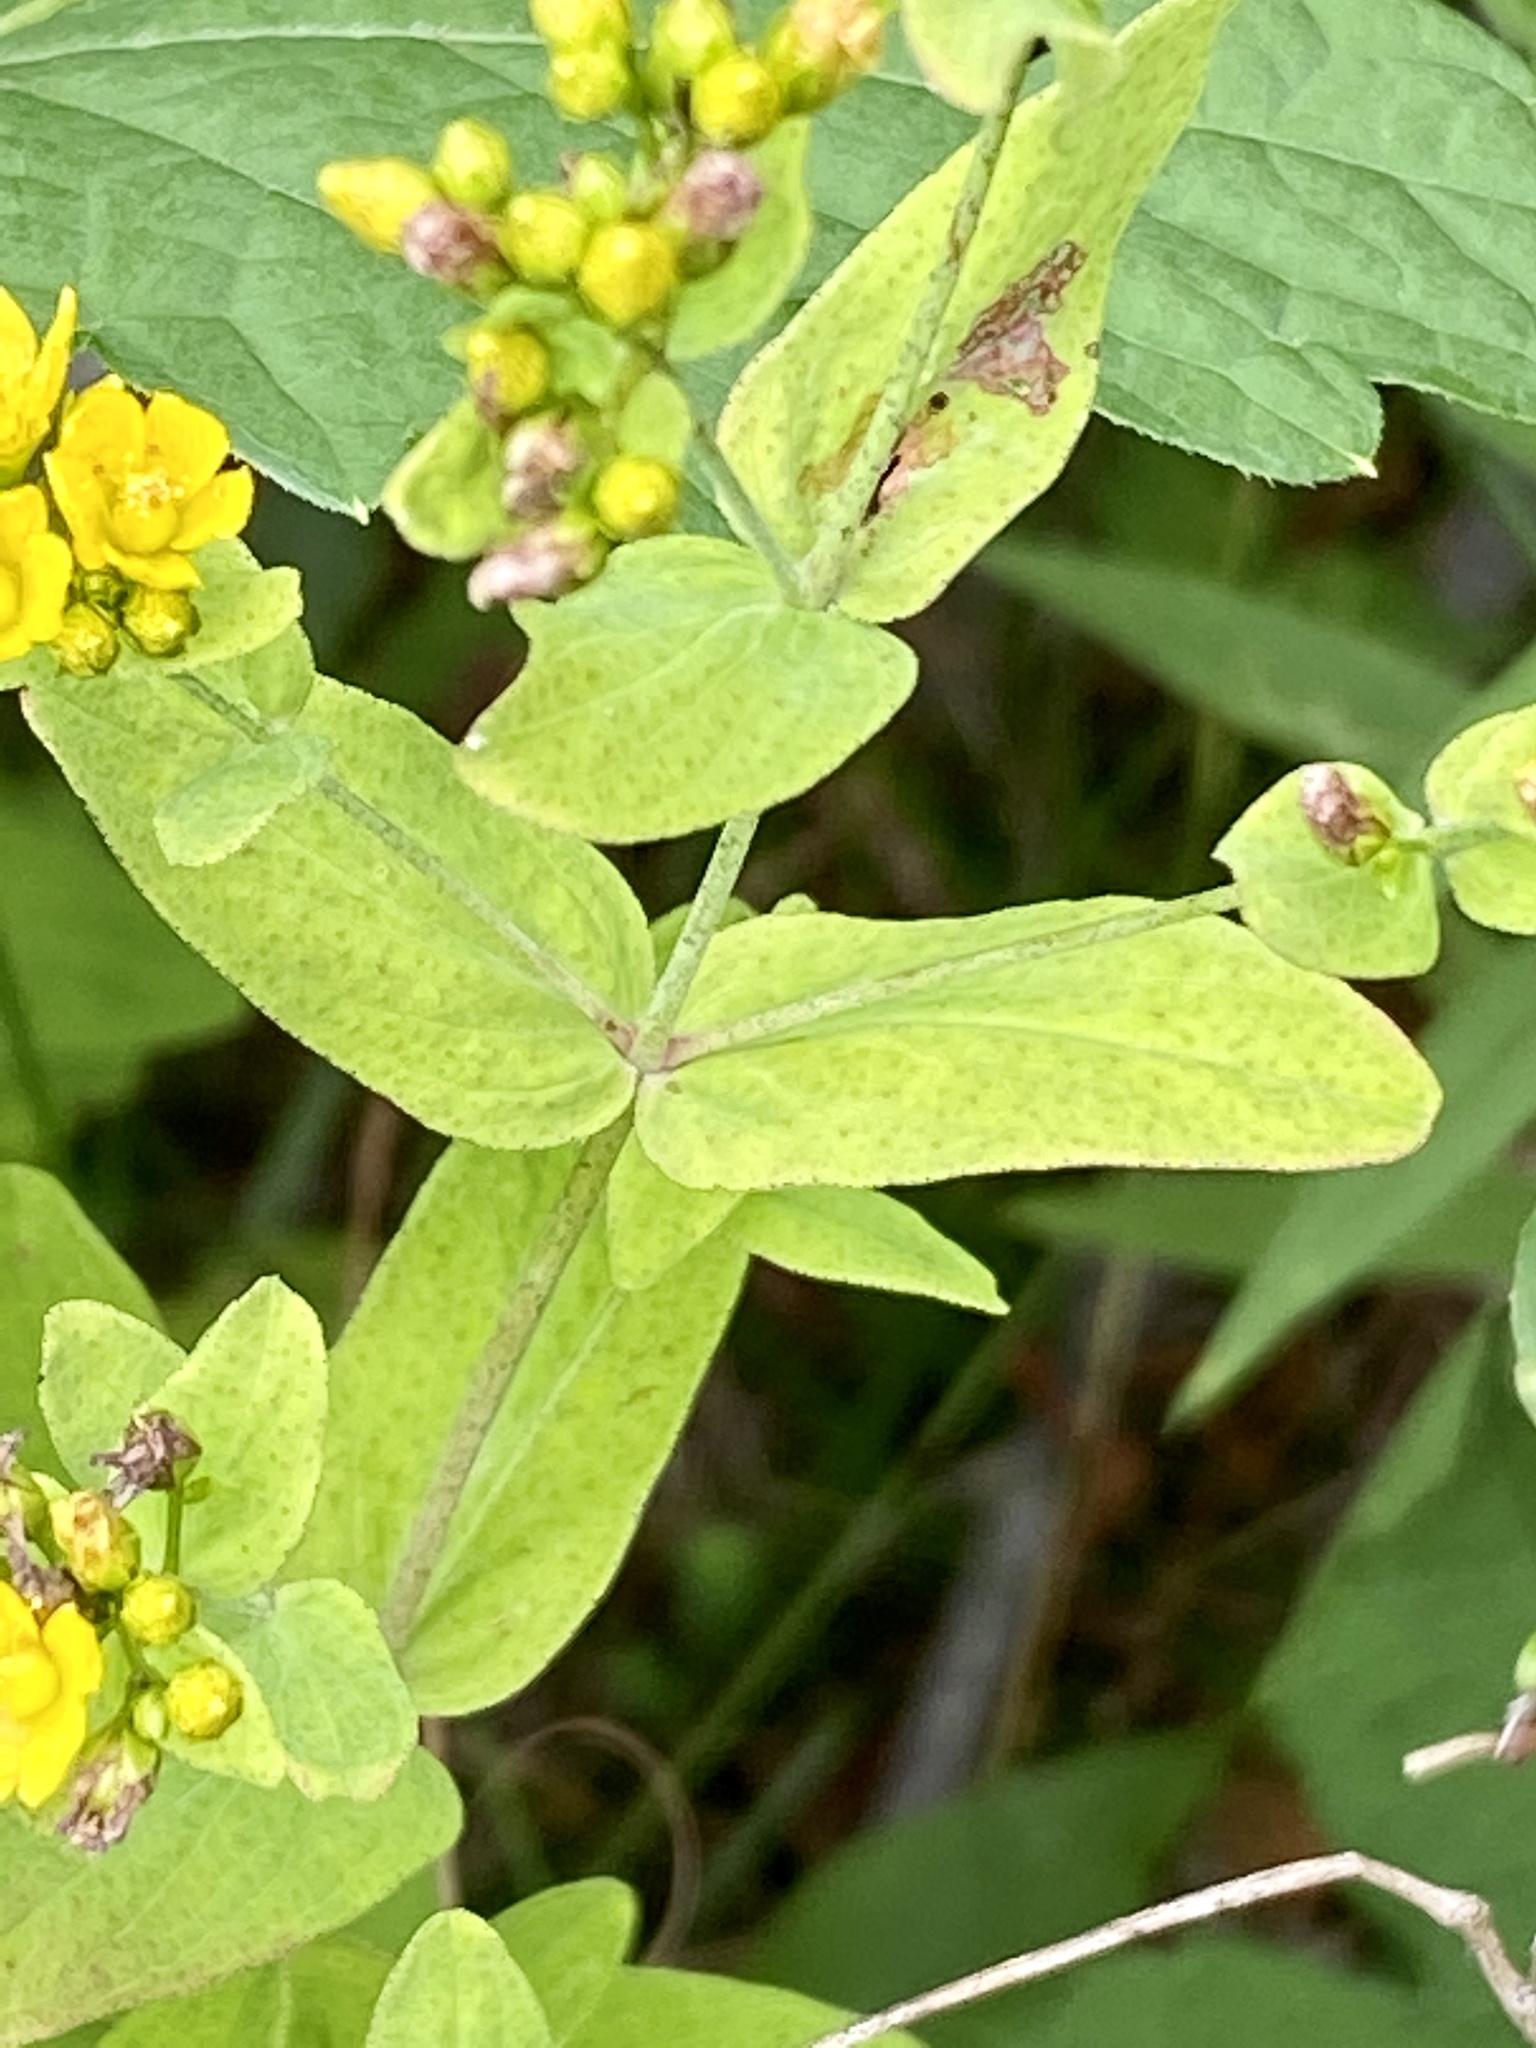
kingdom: Plantae
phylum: Tracheophyta
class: Magnoliopsida
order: Malpighiales
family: Hypericaceae
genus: Hypericum
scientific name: Hypericum punctatum
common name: Spotted st. john's-wort
